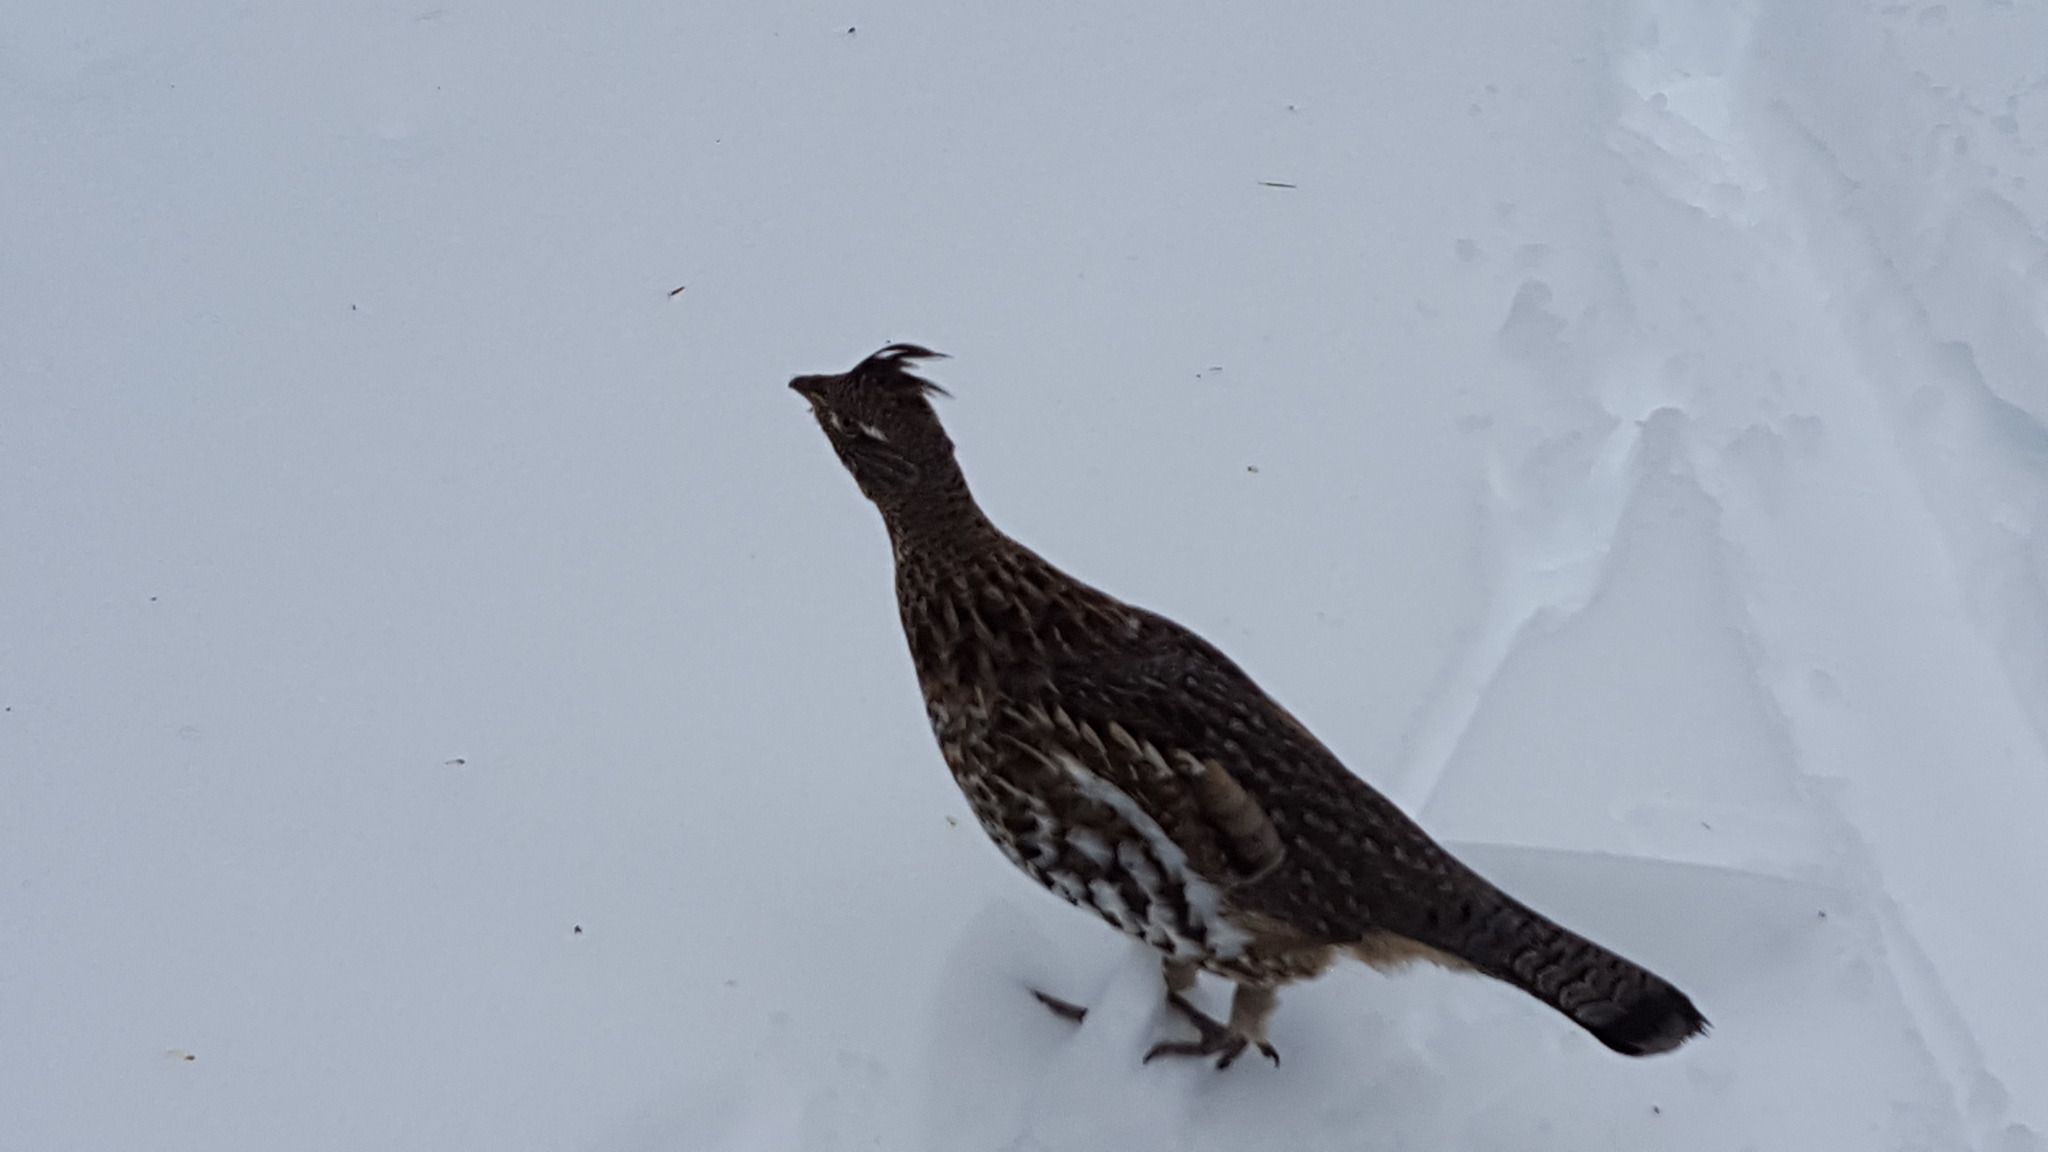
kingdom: Animalia
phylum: Chordata
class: Aves
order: Galliformes
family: Phasianidae
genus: Bonasa
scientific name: Bonasa umbellus
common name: Ruffed grouse
